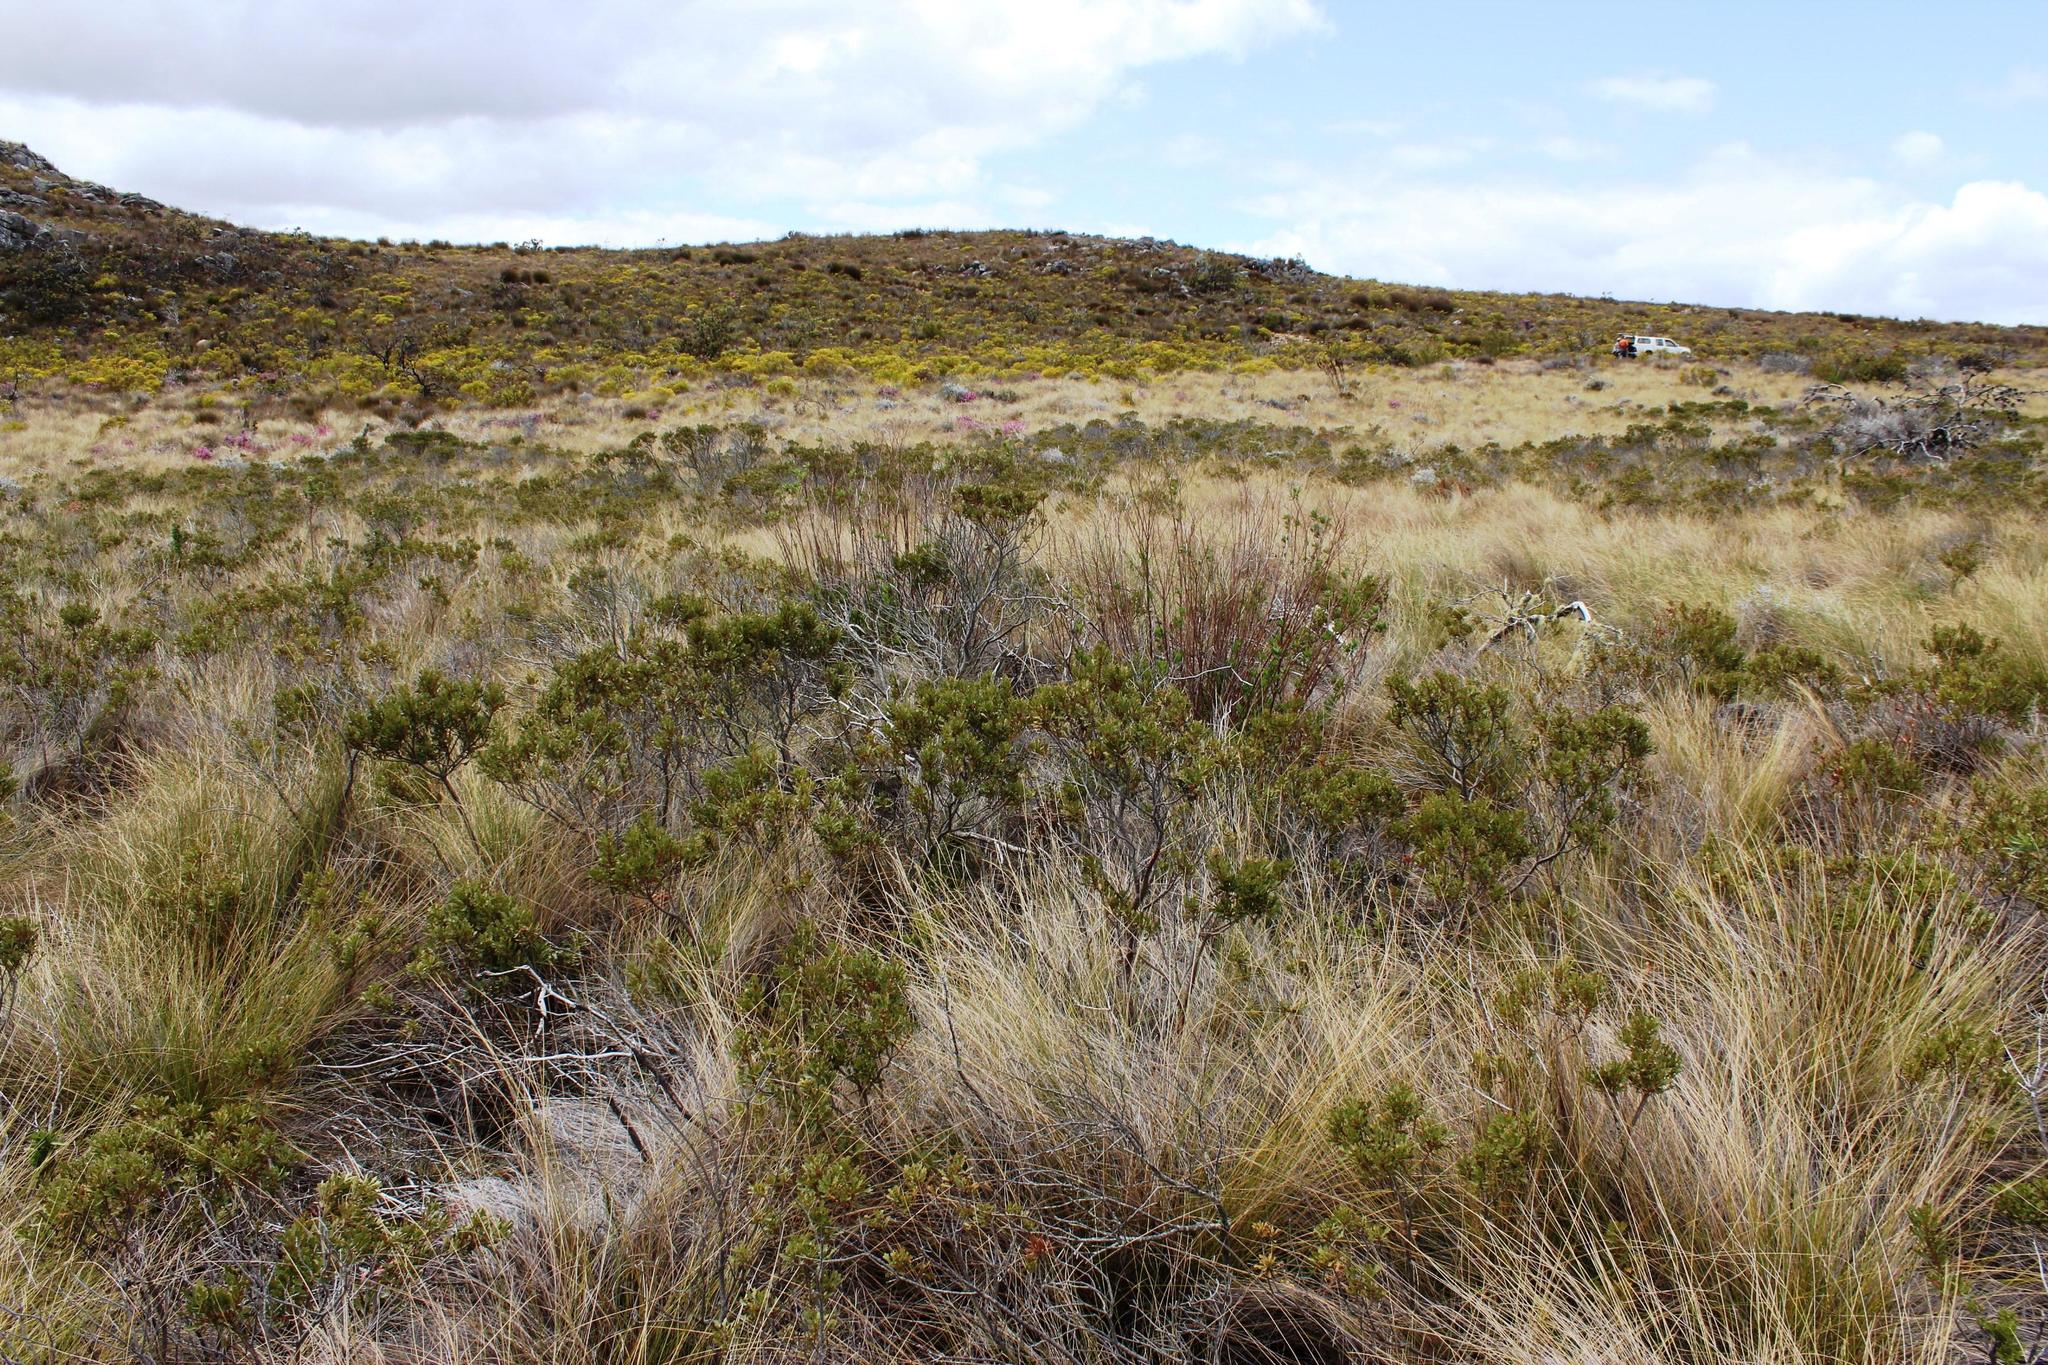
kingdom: Plantae
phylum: Tracheophyta
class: Magnoliopsida
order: Fagales
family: Myricaceae
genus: Morella
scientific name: Morella quercifolia
